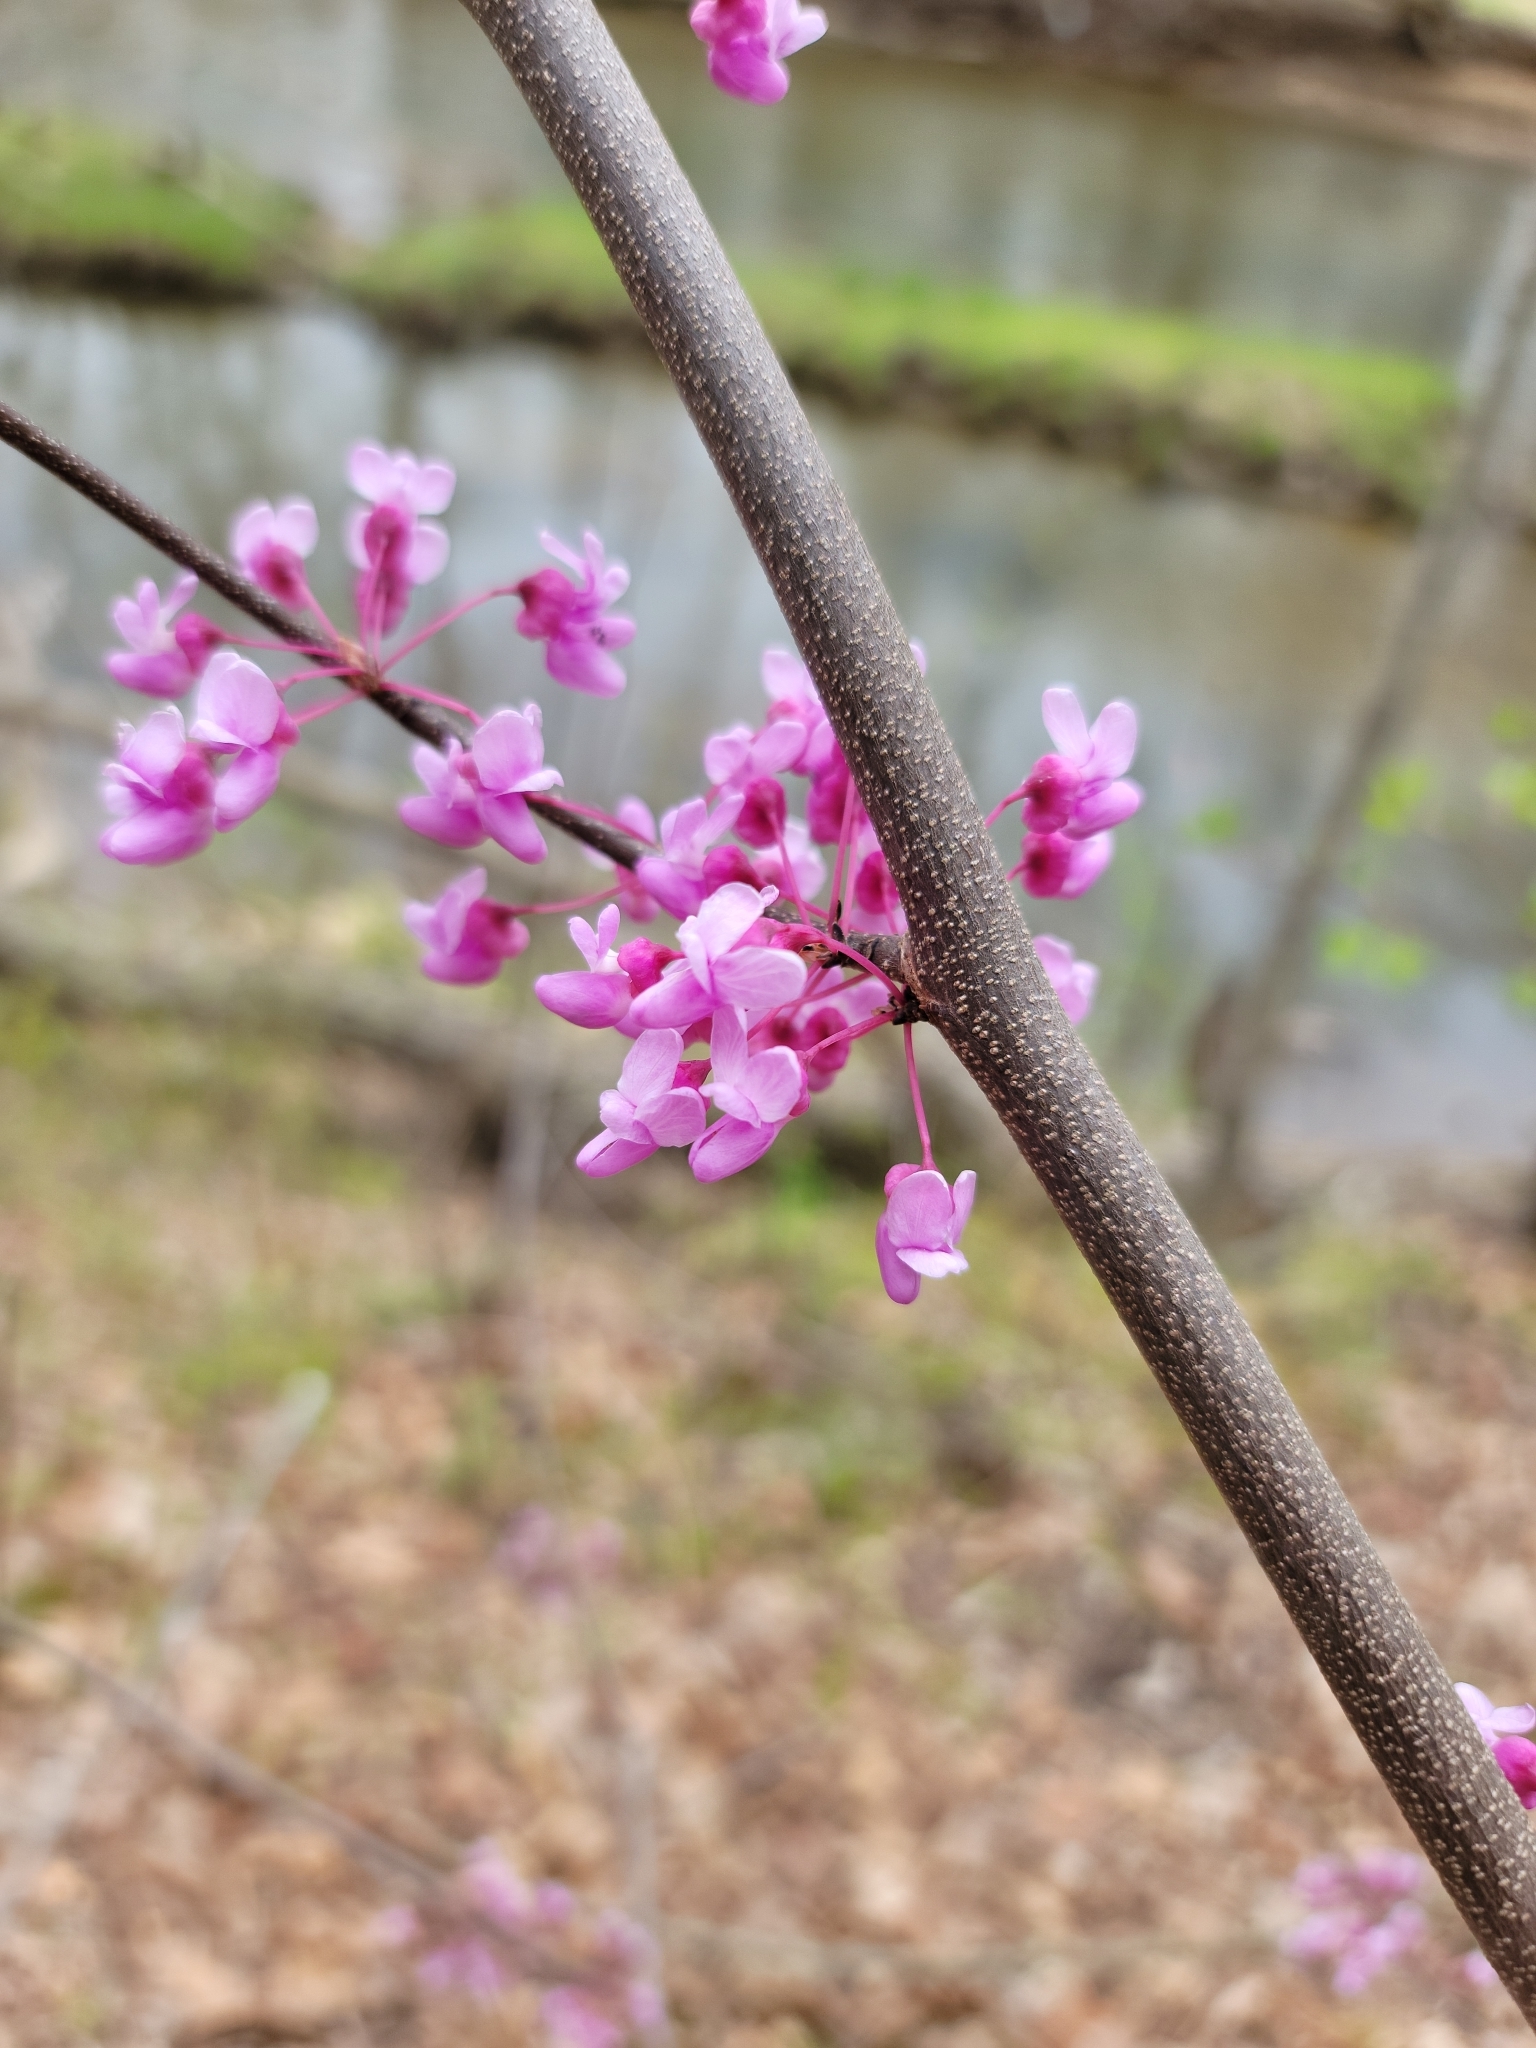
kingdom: Plantae
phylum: Tracheophyta
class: Magnoliopsida
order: Fabales
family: Fabaceae
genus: Cercis
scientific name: Cercis canadensis
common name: Eastern redbud
